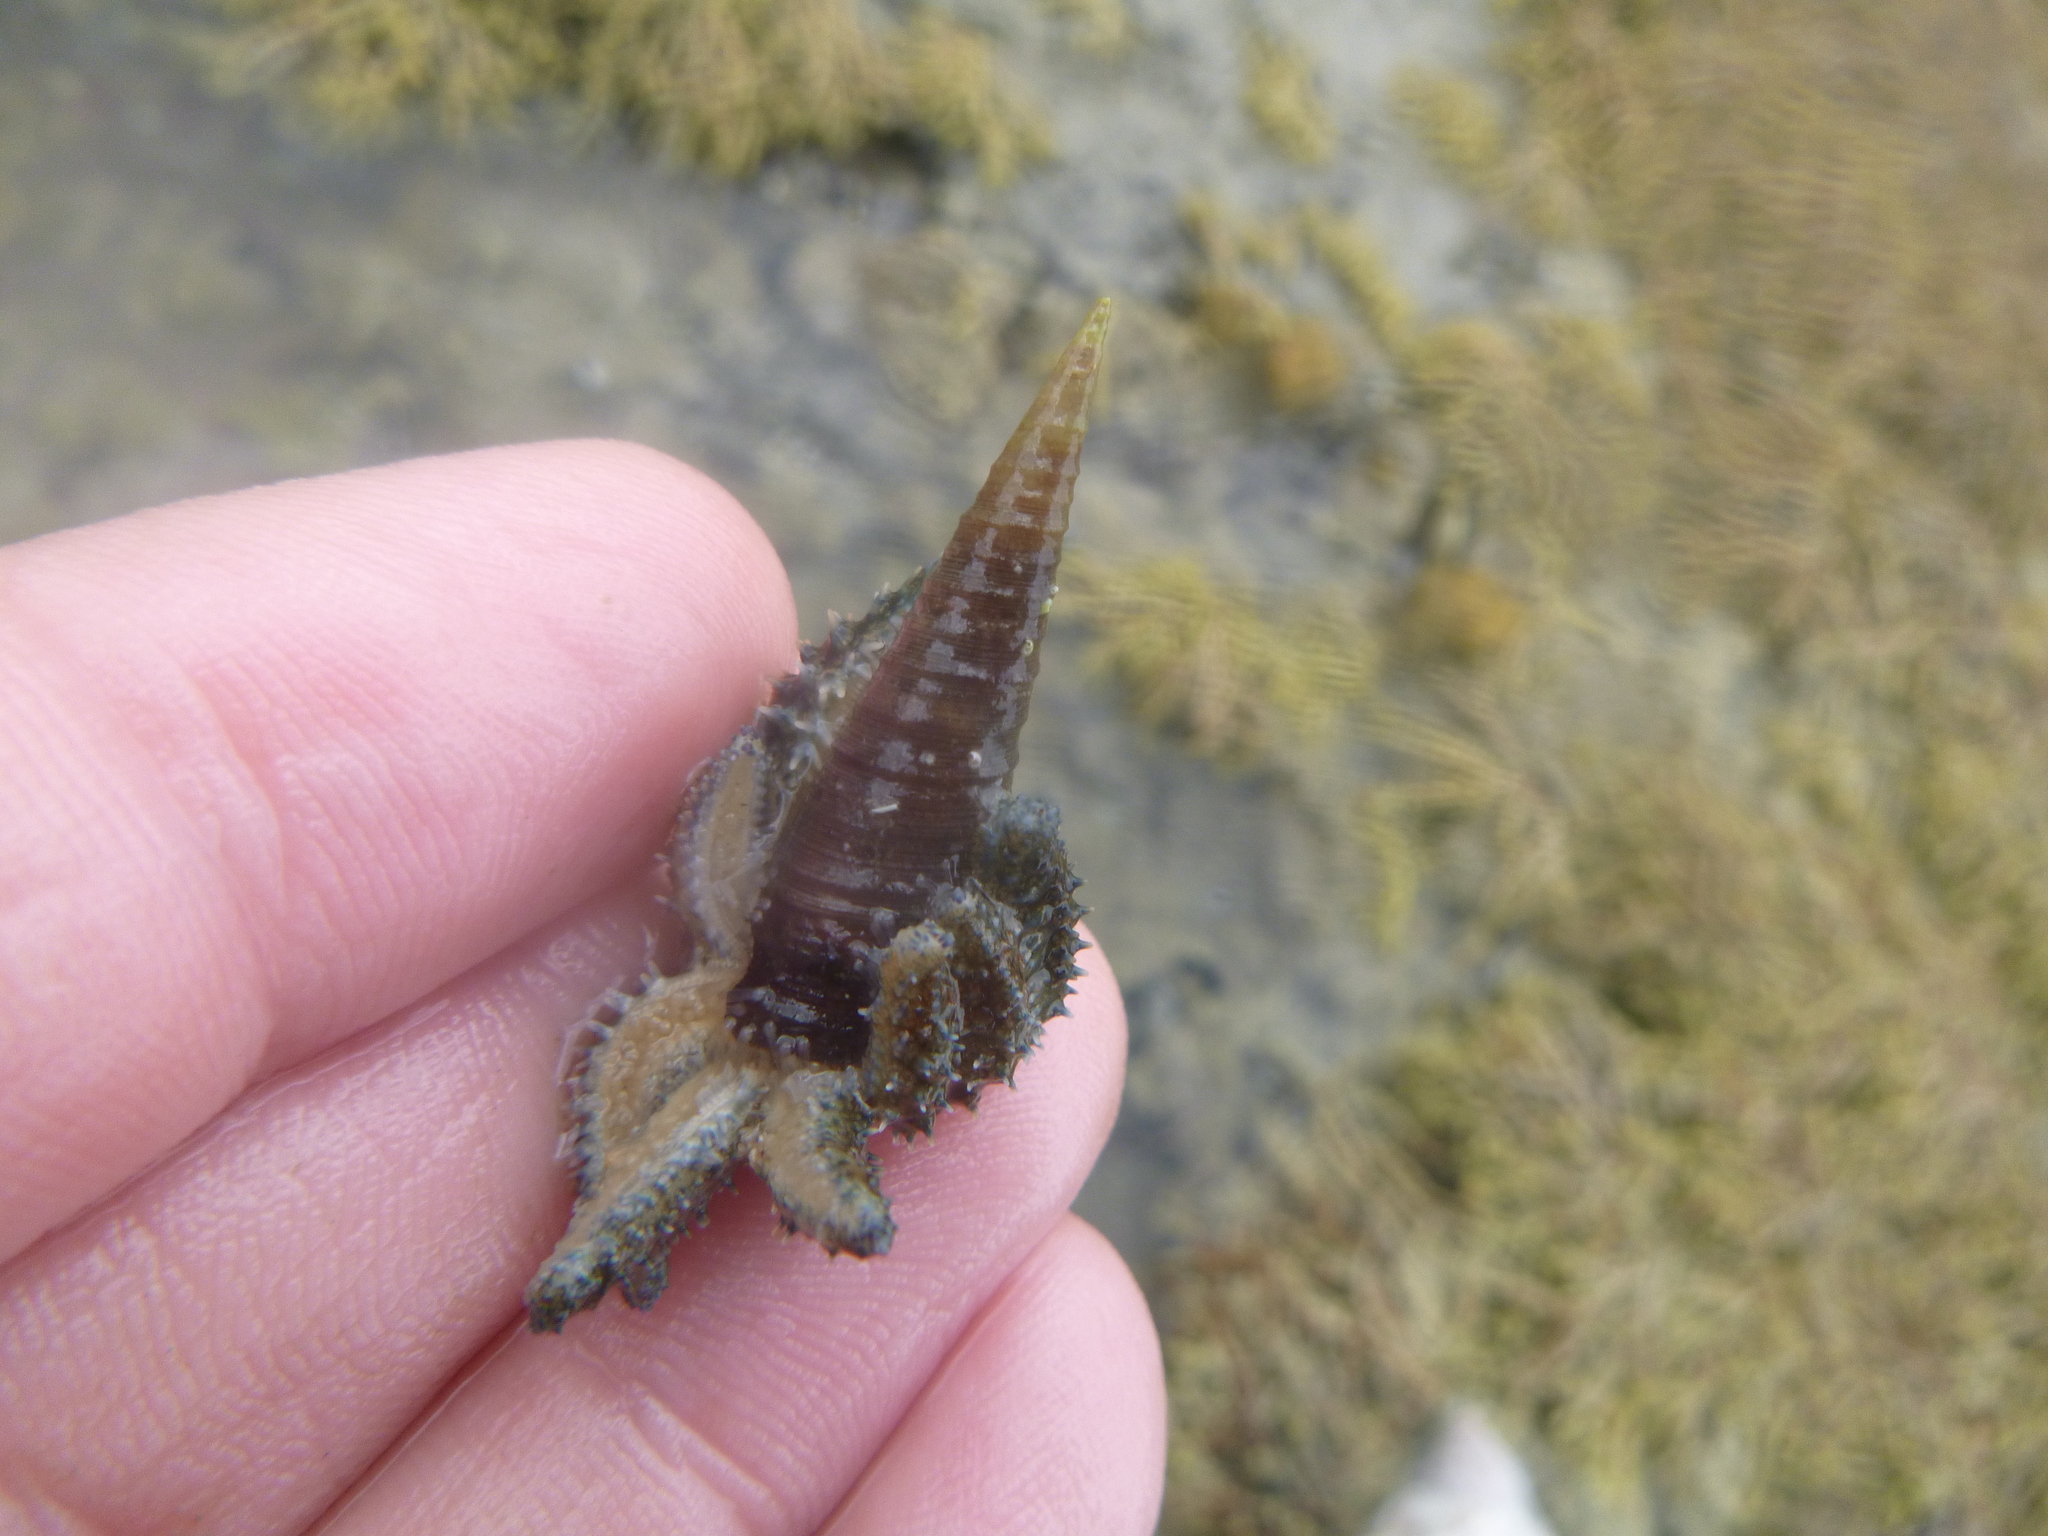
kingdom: Animalia
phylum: Mollusca
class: Gastropoda
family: Turritellidae
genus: Maoricolpus
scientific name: Maoricolpus roseus
